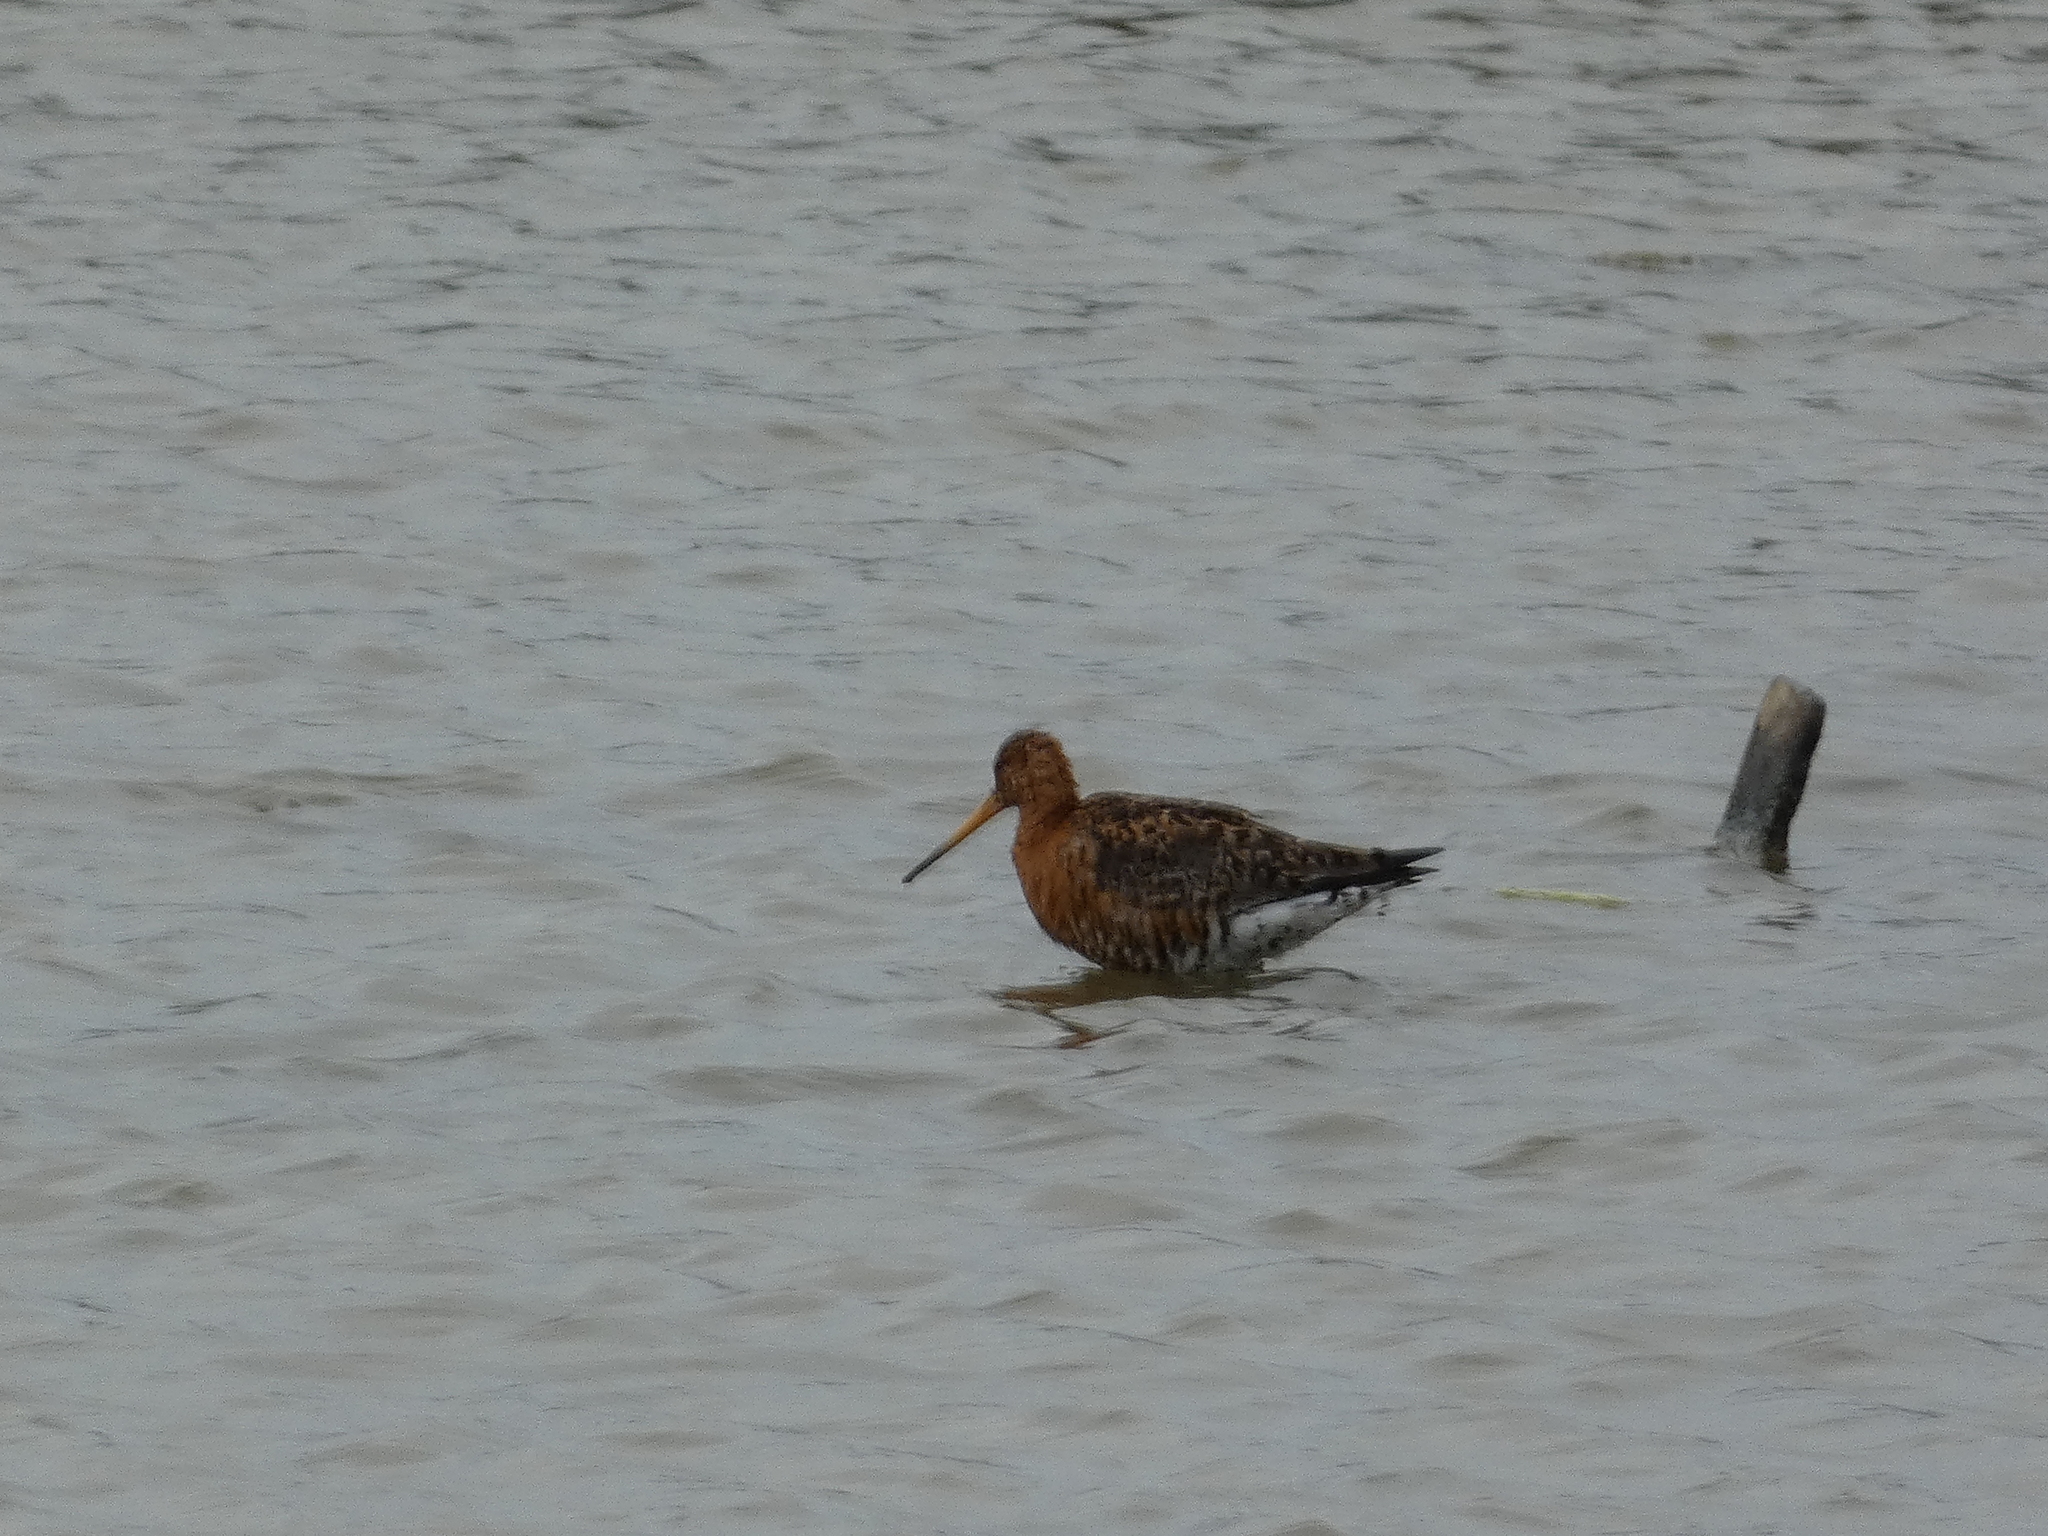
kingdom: Animalia
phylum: Chordata
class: Aves
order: Charadriiformes
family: Scolopacidae
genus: Limosa
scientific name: Limosa limosa
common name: Black-tailed godwit
